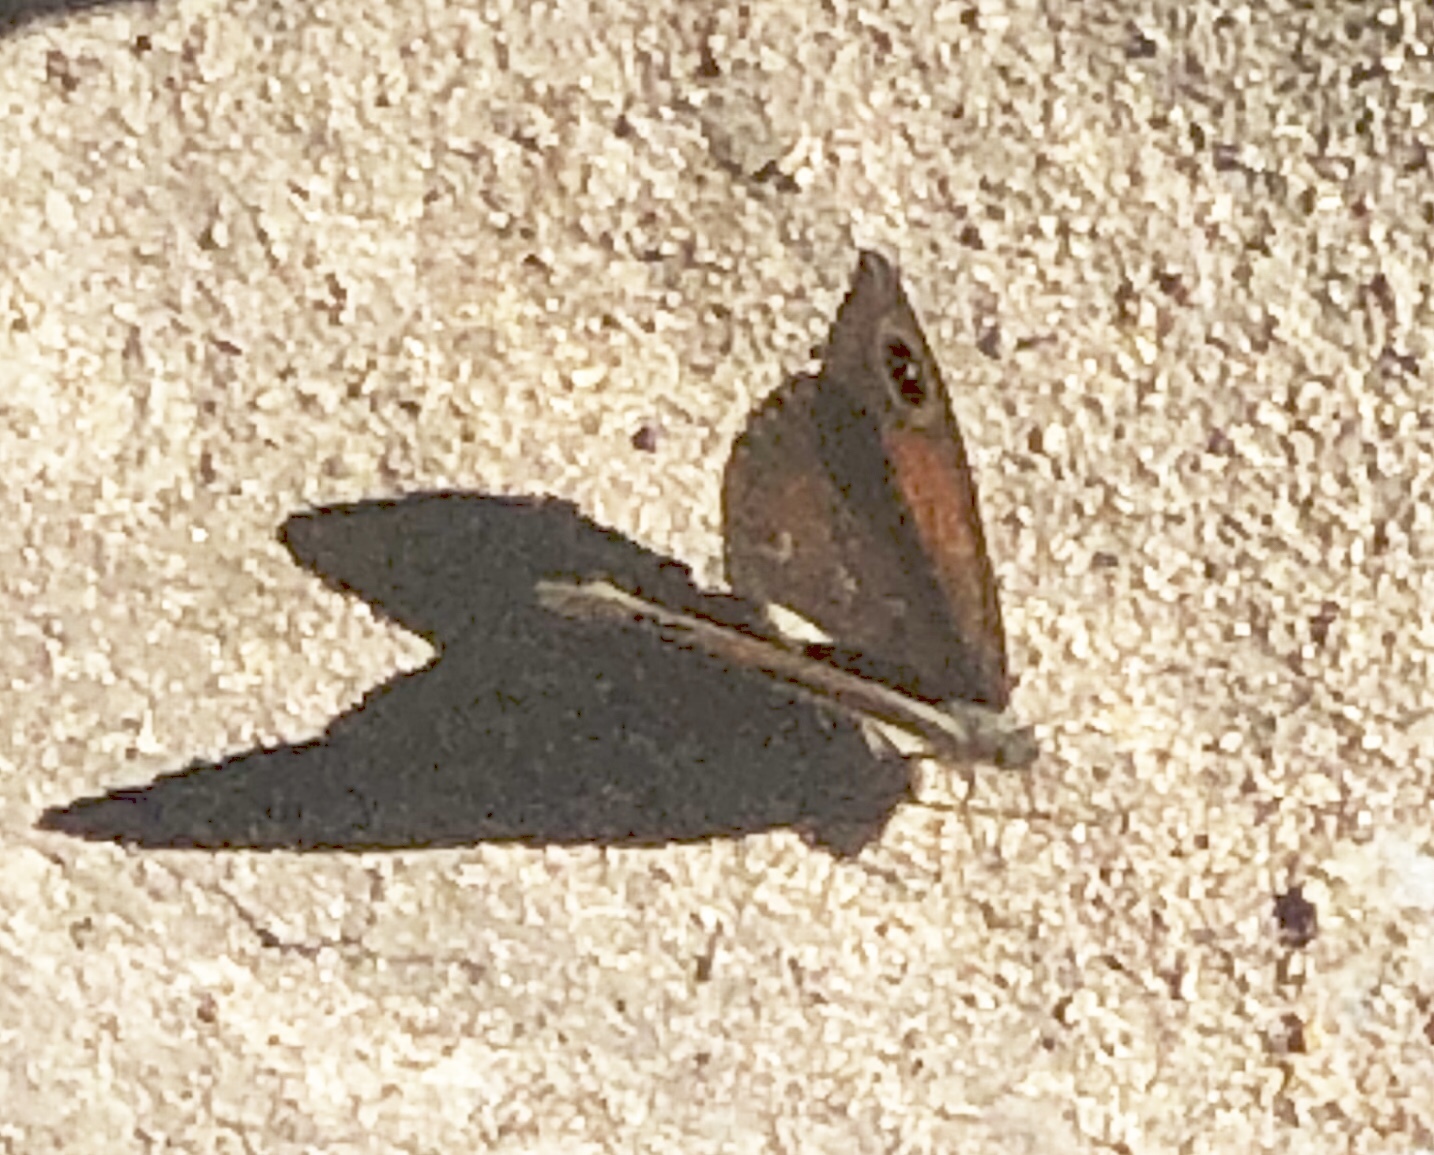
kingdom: Animalia
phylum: Arthropoda
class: Insecta
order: Lepidoptera
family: Nymphalidae
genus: Stygionympha
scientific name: Stygionympha vigilans
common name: Western hillside brown
